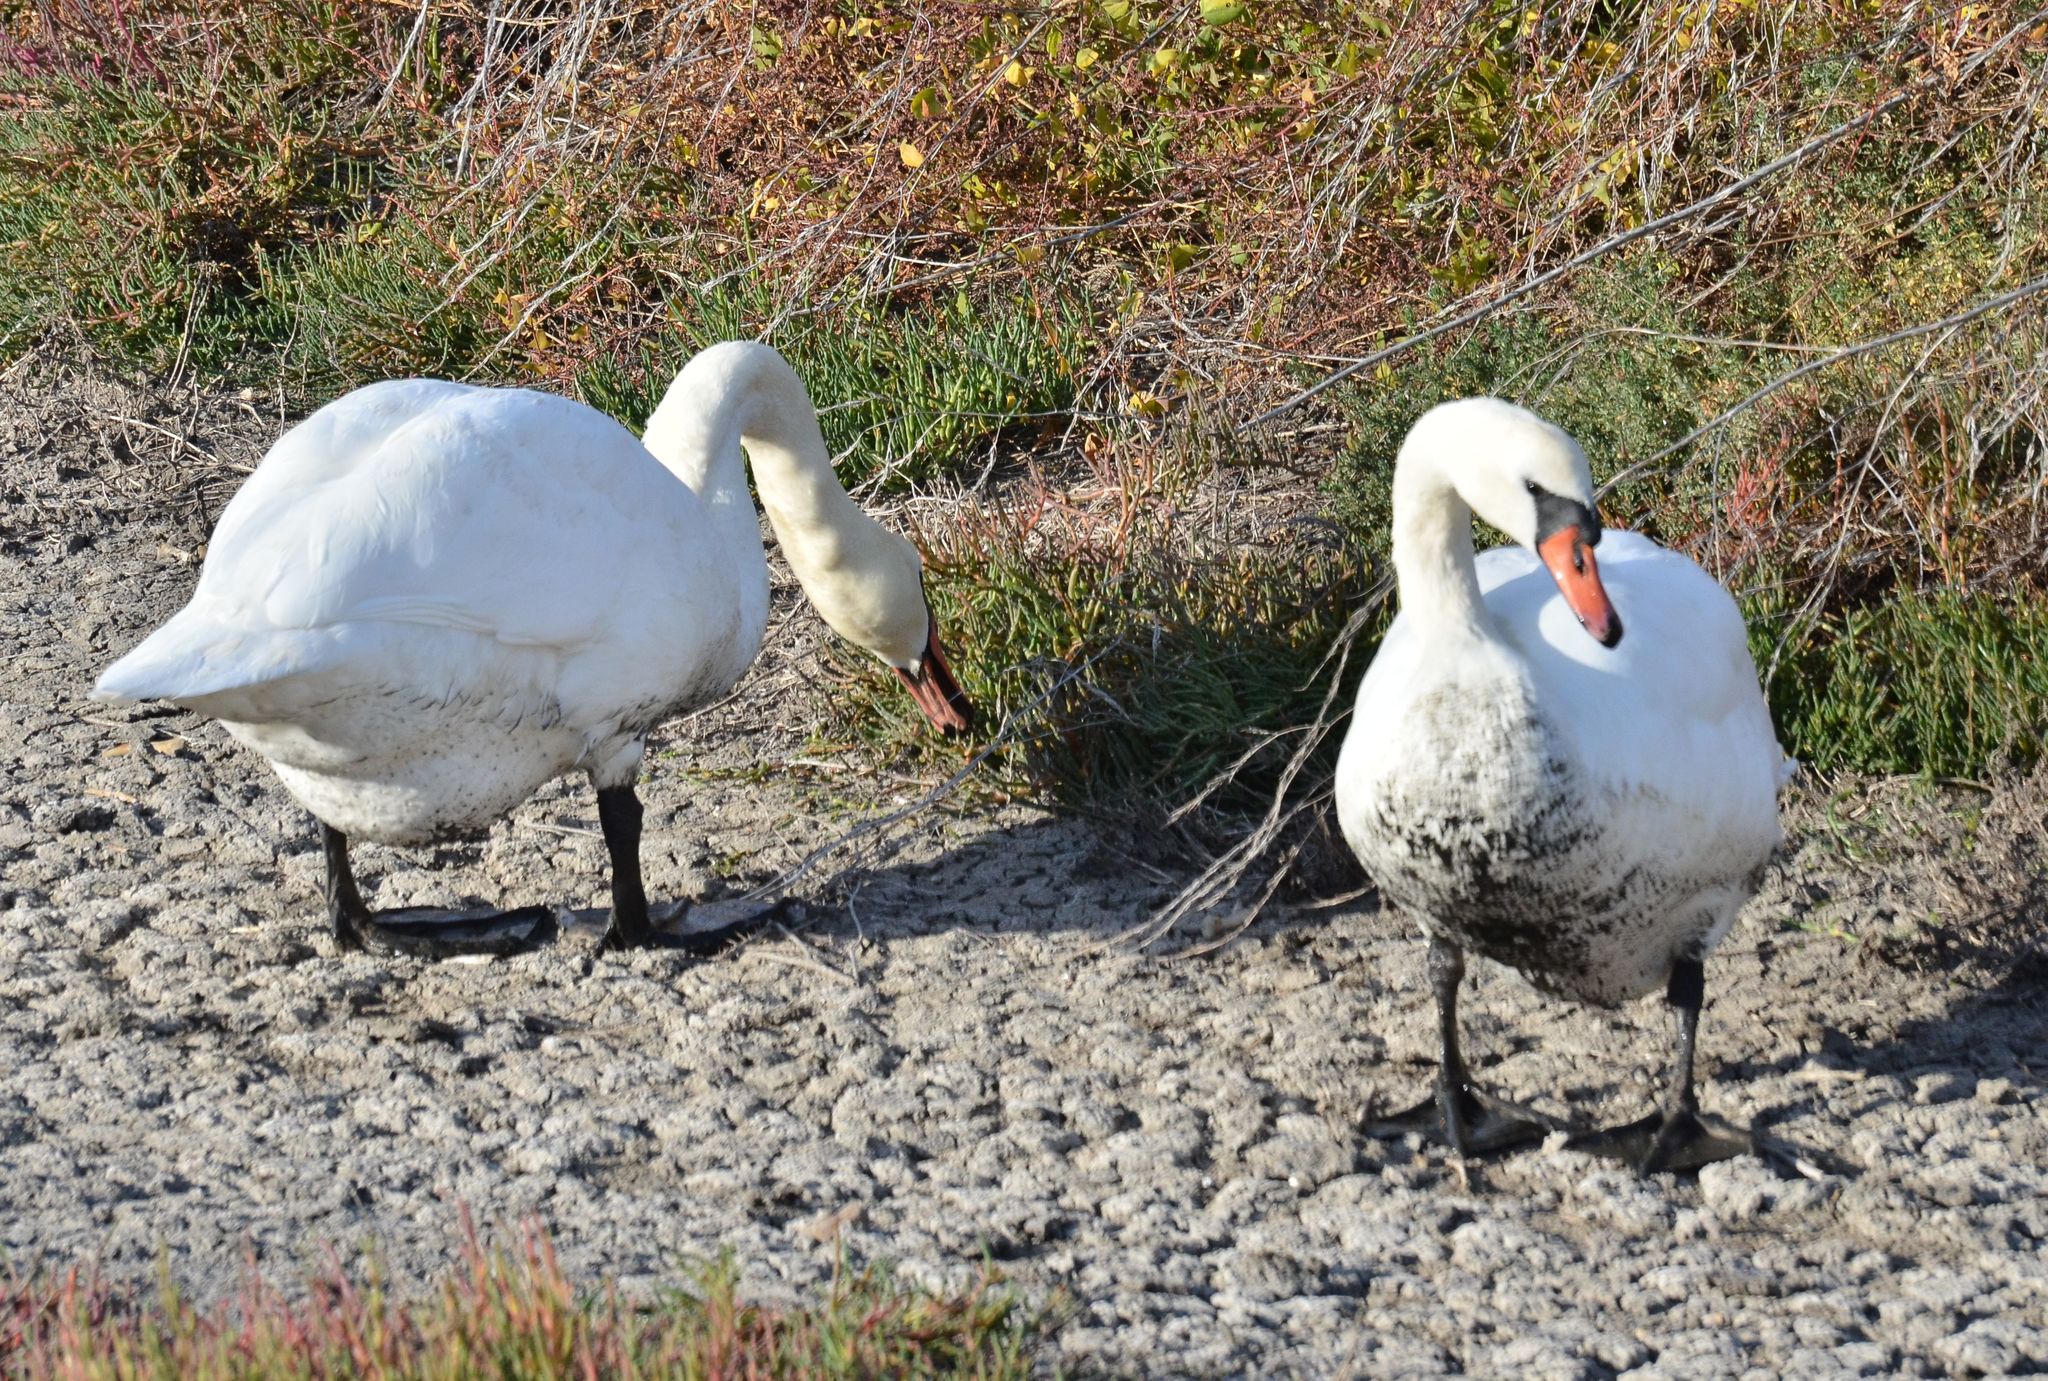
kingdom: Animalia
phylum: Chordata
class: Aves
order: Anseriformes
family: Anatidae
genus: Cygnus
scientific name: Cygnus olor
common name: Mute swan
